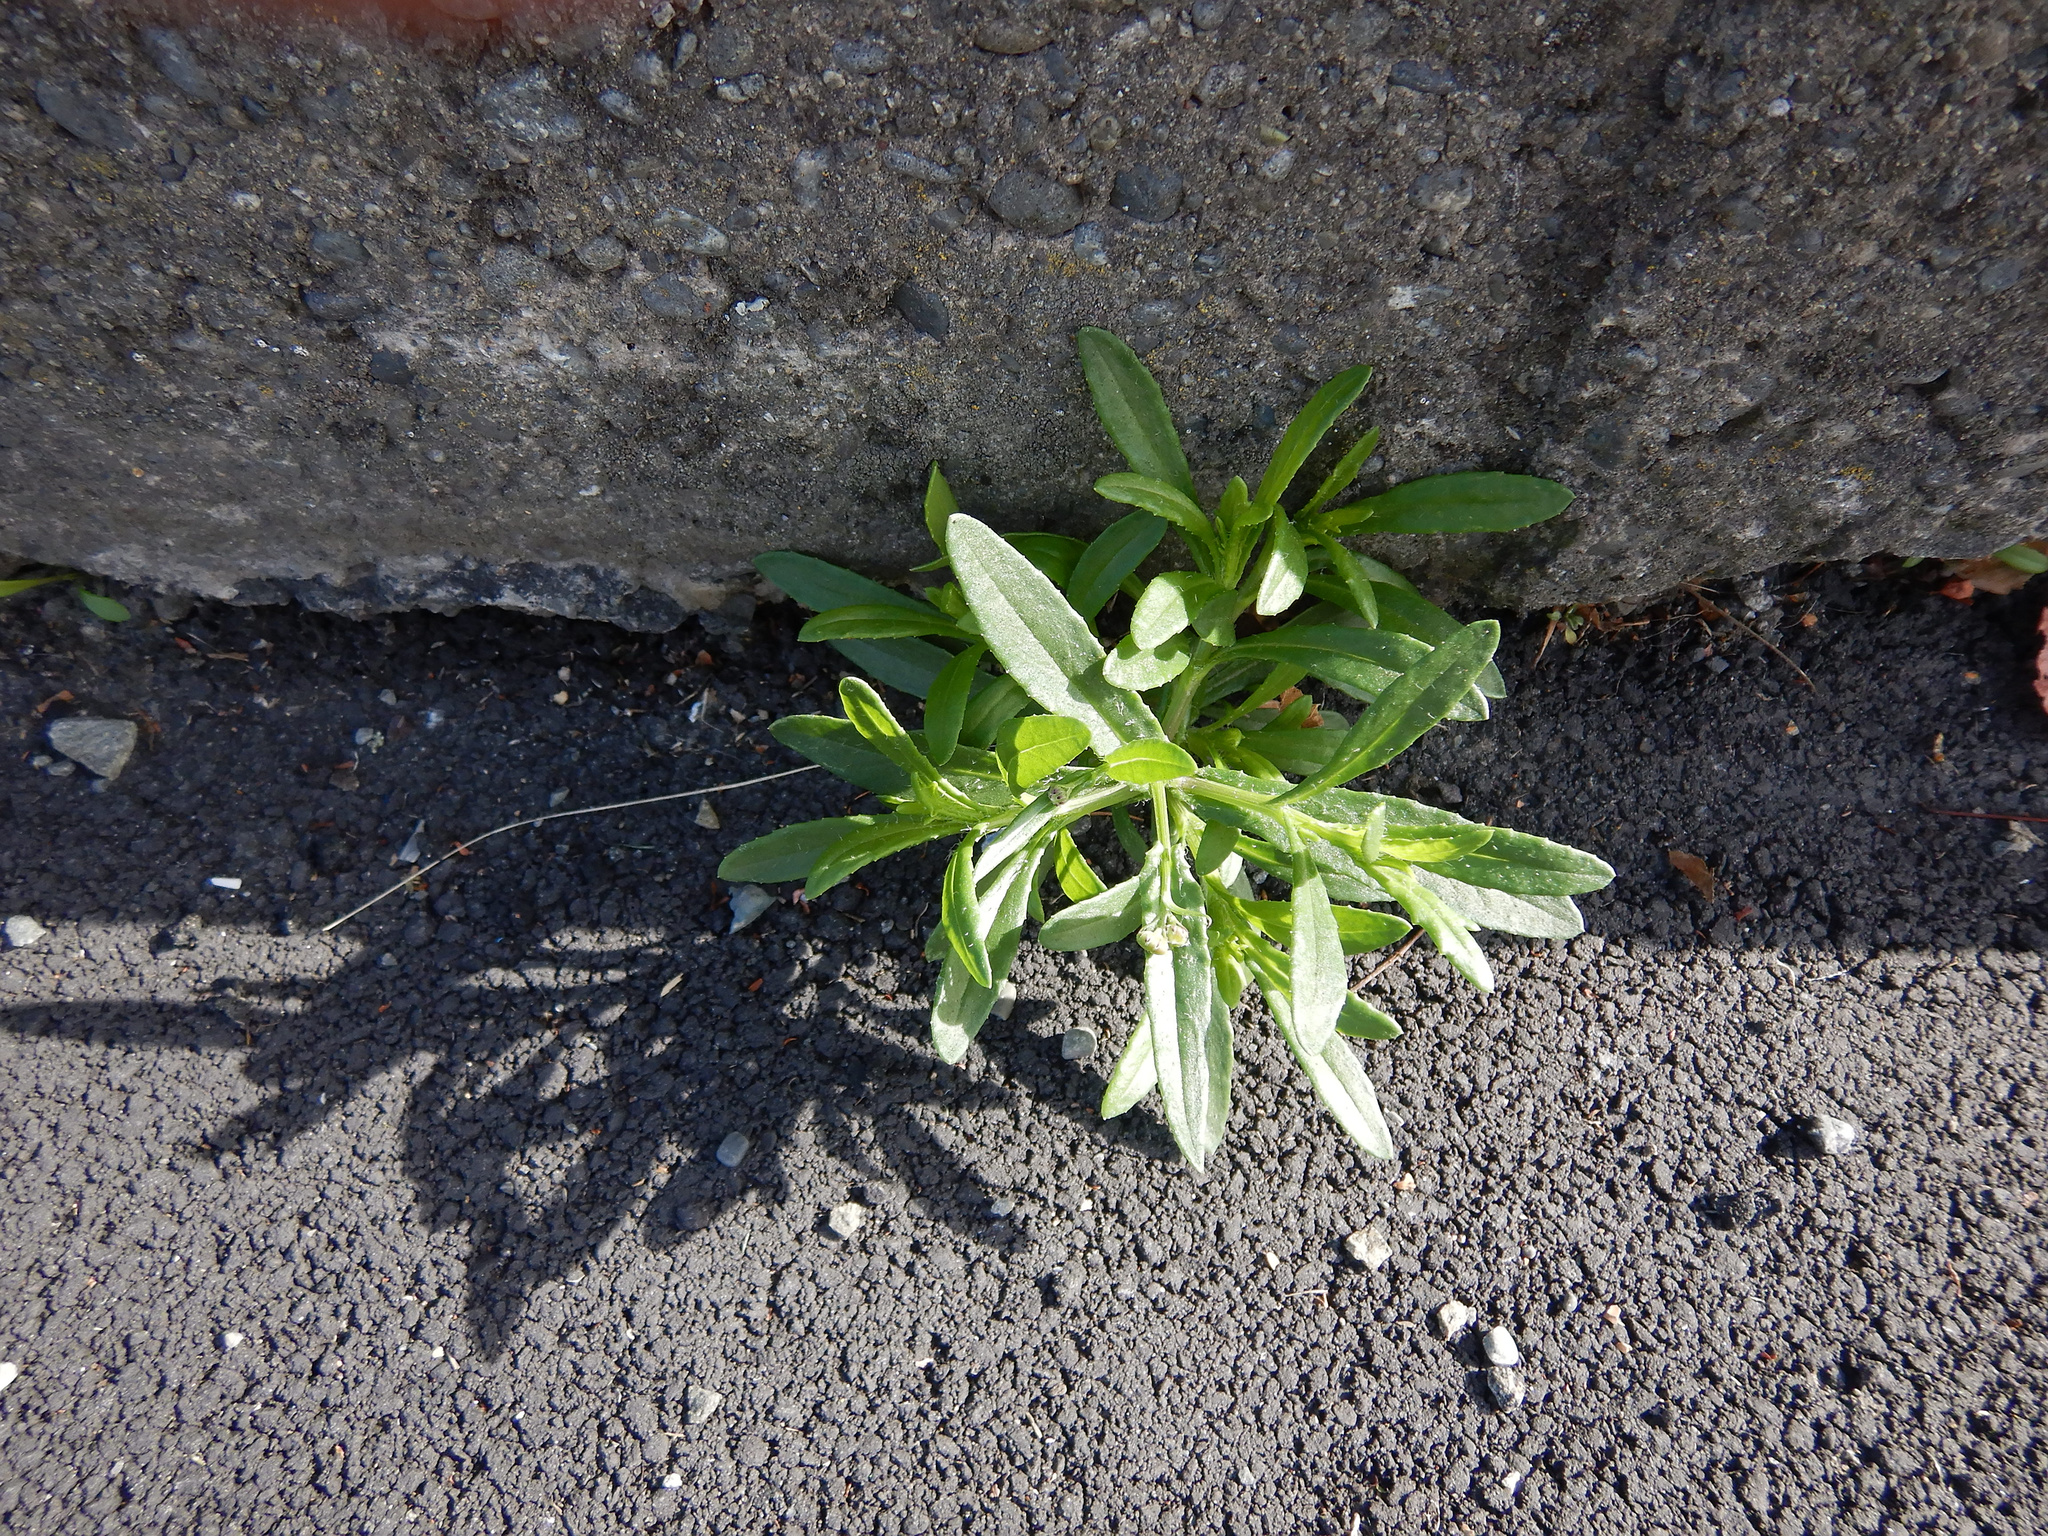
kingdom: Plantae
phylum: Tracheophyta
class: Magnoliopsida
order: Asterales
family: Asteraceae
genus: Senecio
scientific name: Senecio skirrhodon
